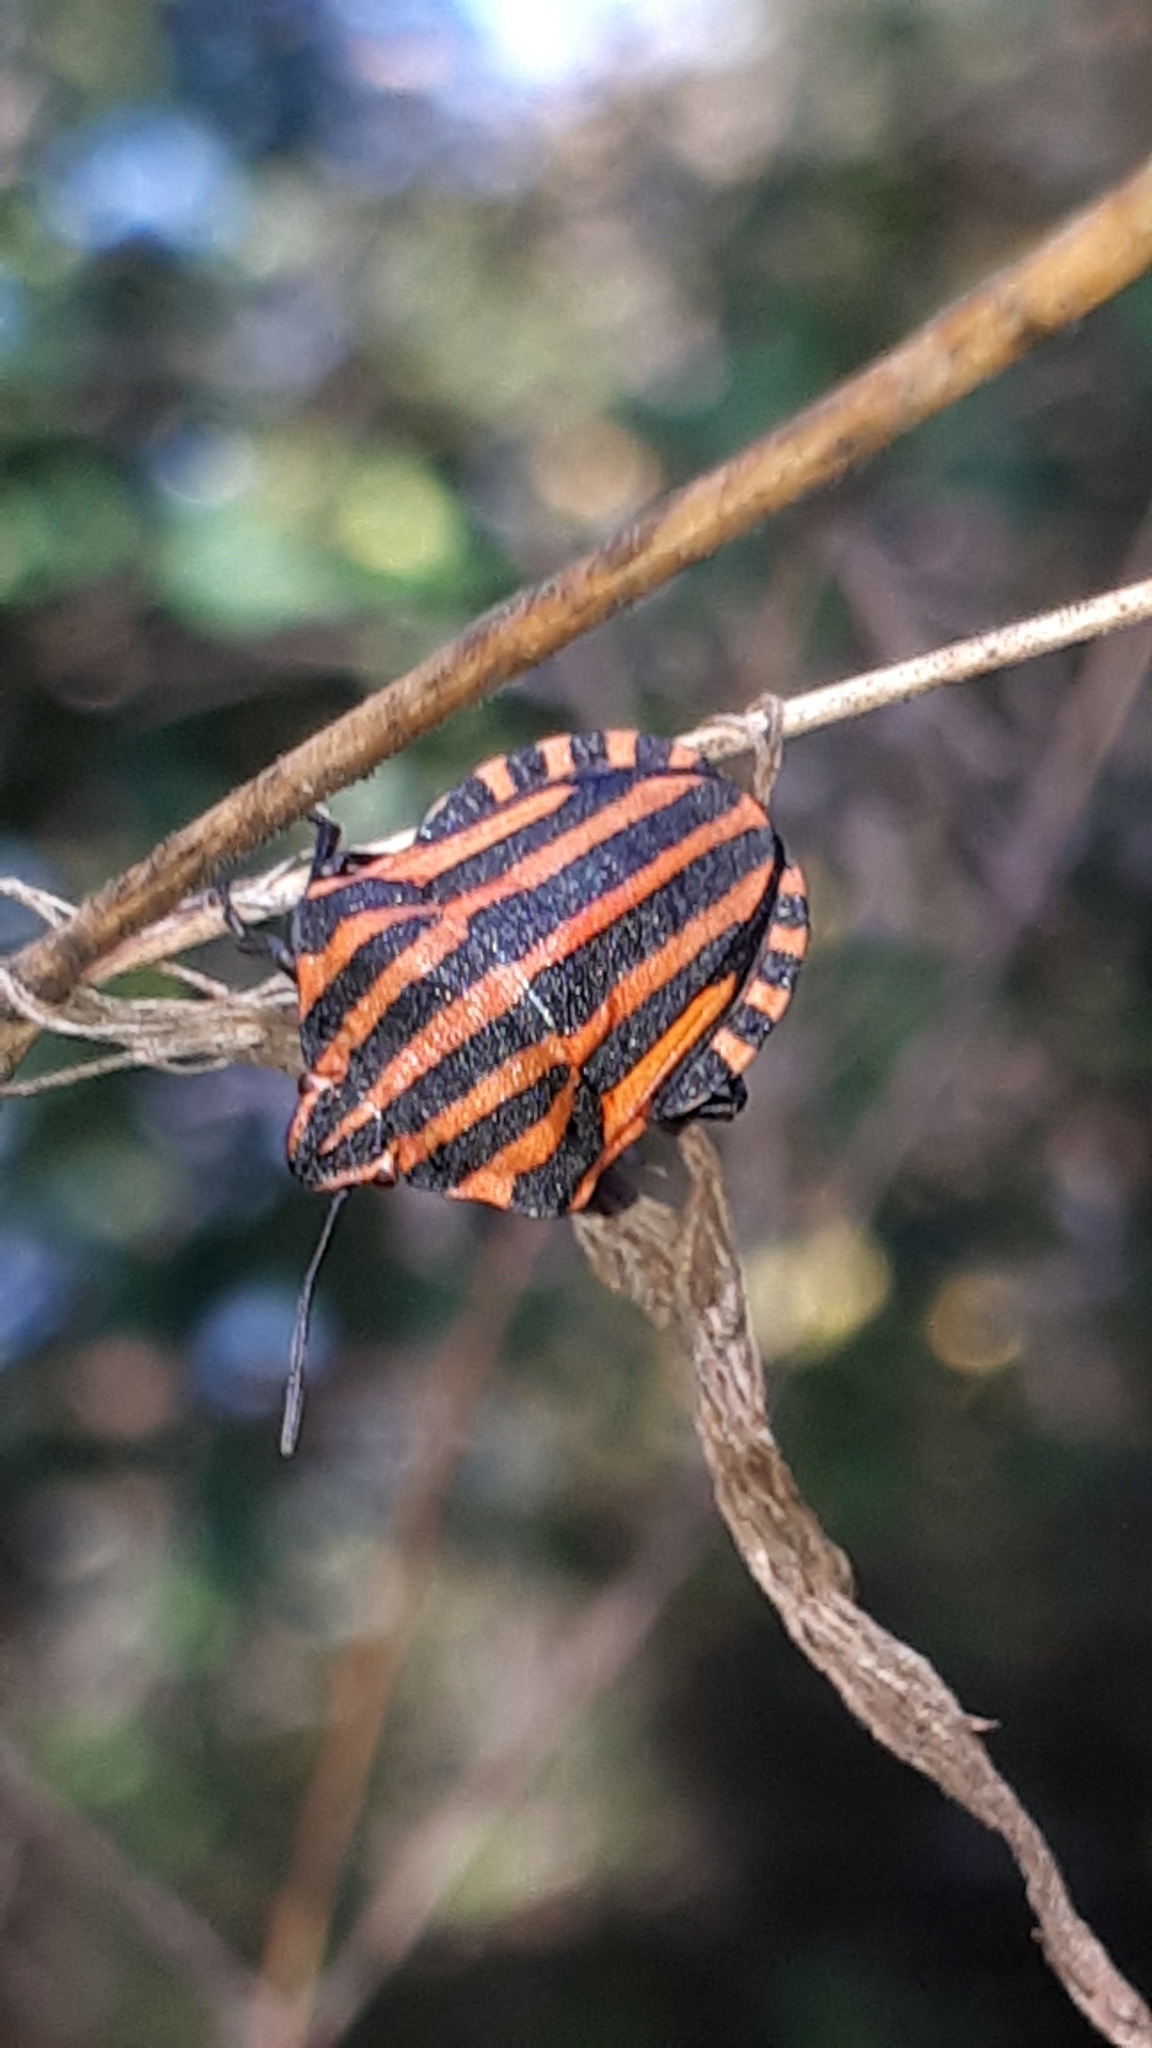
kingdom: Animalia
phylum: Arthropoda
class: Insecta
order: Hemiptera
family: Pentatomidae
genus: Graphosoma
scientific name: Graphosoma italicum
